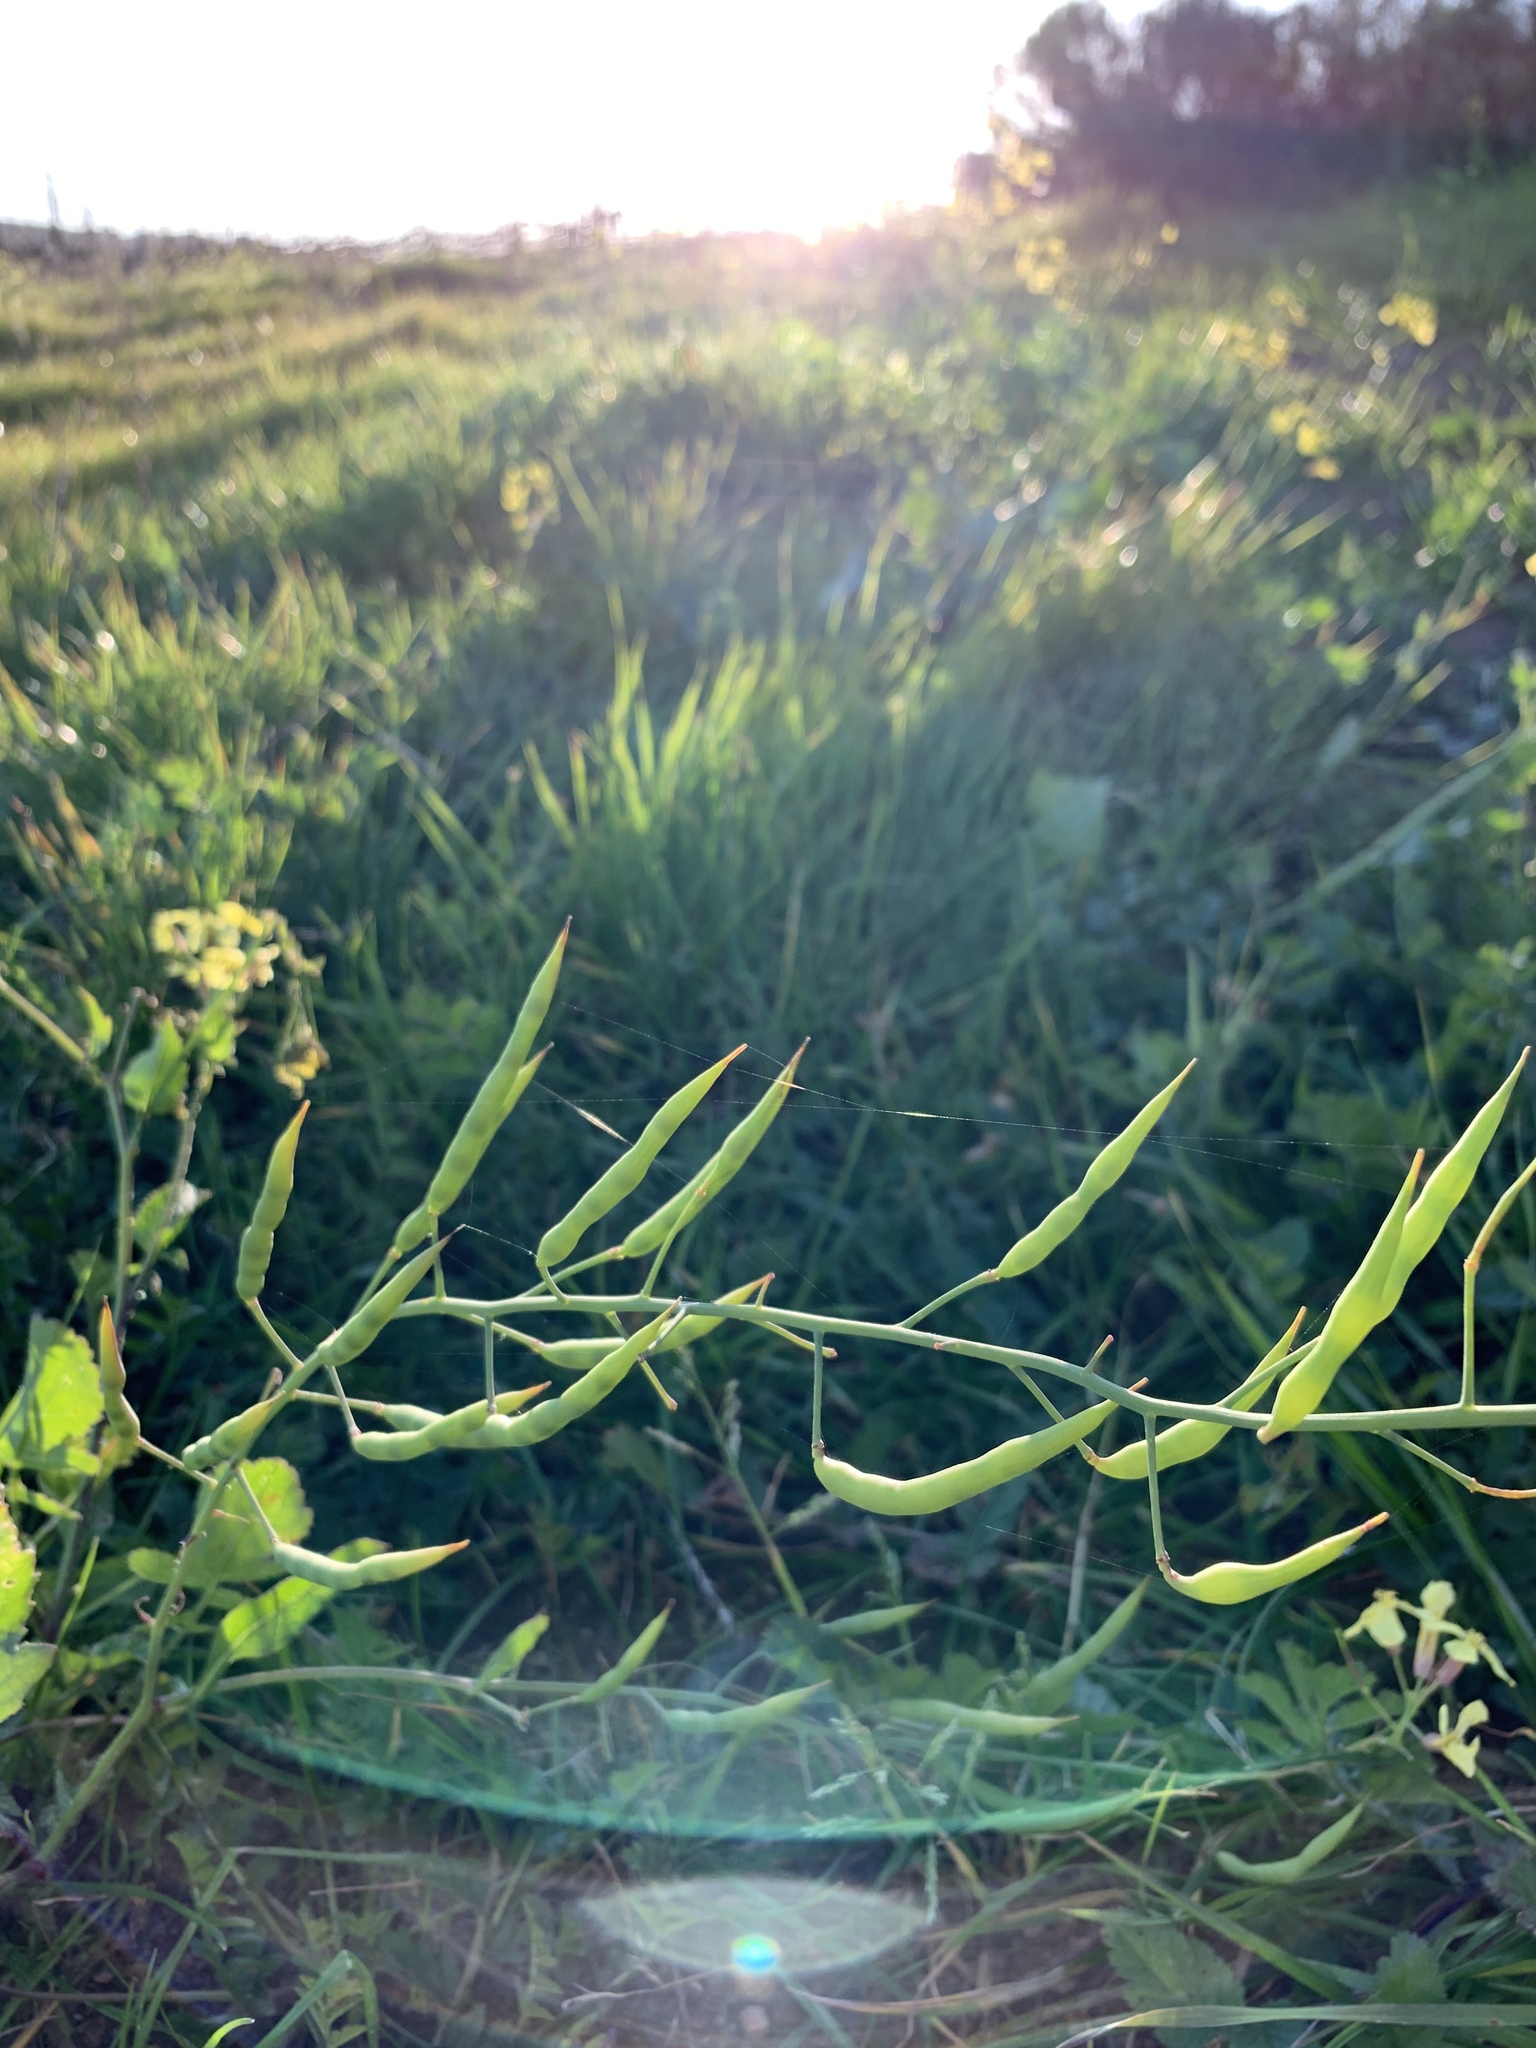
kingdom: Plantae
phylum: Tracheophyta
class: Magnoliopsida
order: Brassicales
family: Brassicaceae
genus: Raphanus
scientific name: Raphanus raphanistrum
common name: Wild radish
